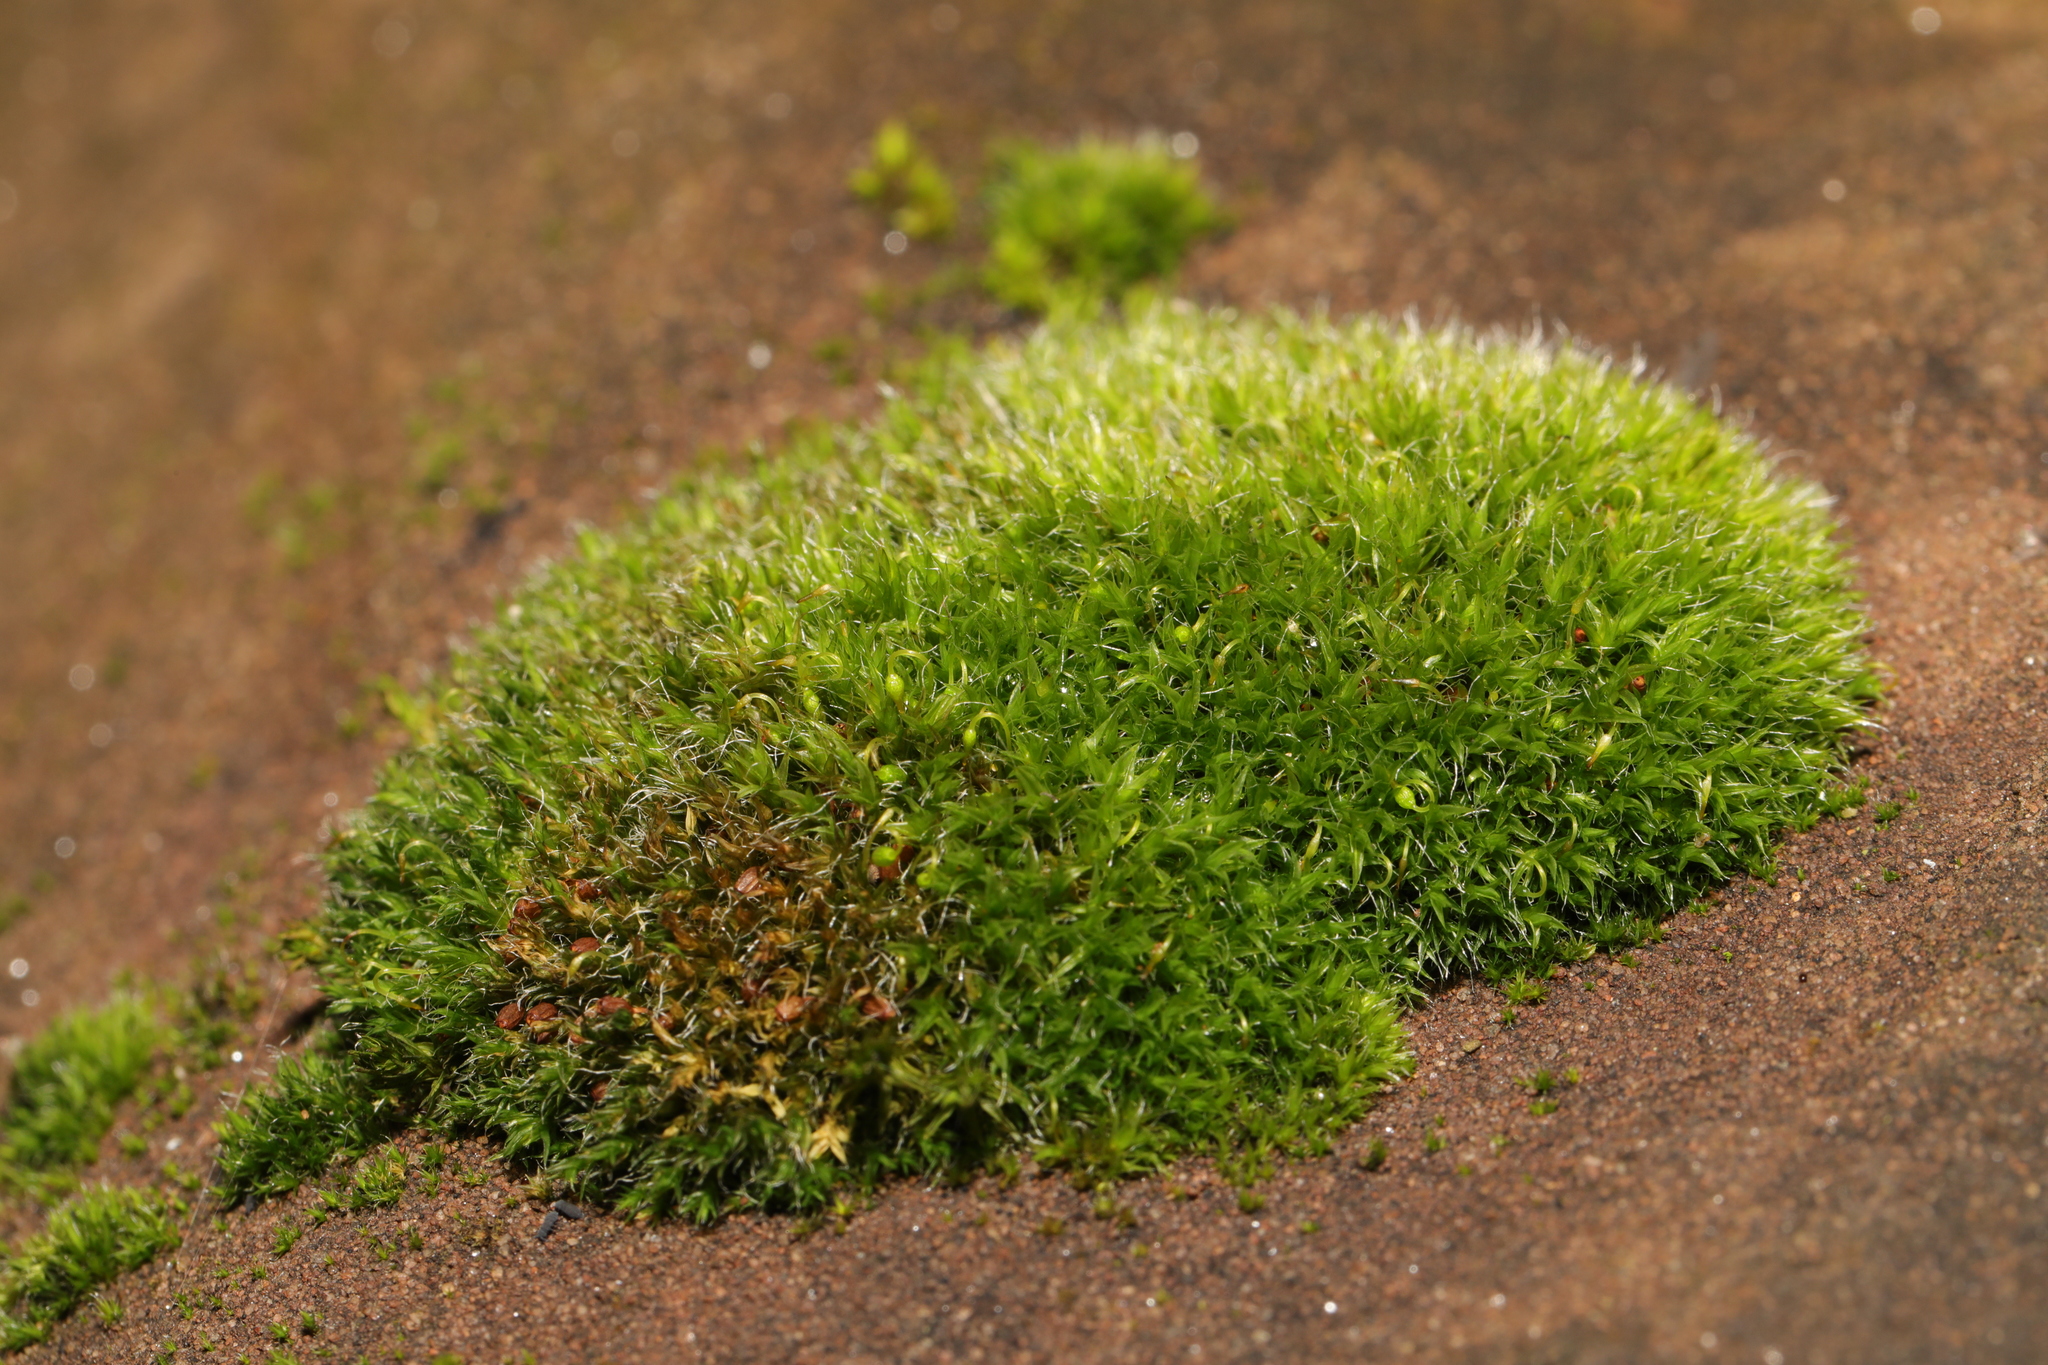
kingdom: Plantae
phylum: Bryophyta
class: Bryopsida
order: Grimmiales
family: Grimmiaceae
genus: Grimmia
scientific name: Grimmia pulvinata
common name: Grey-cushioned grimmia
